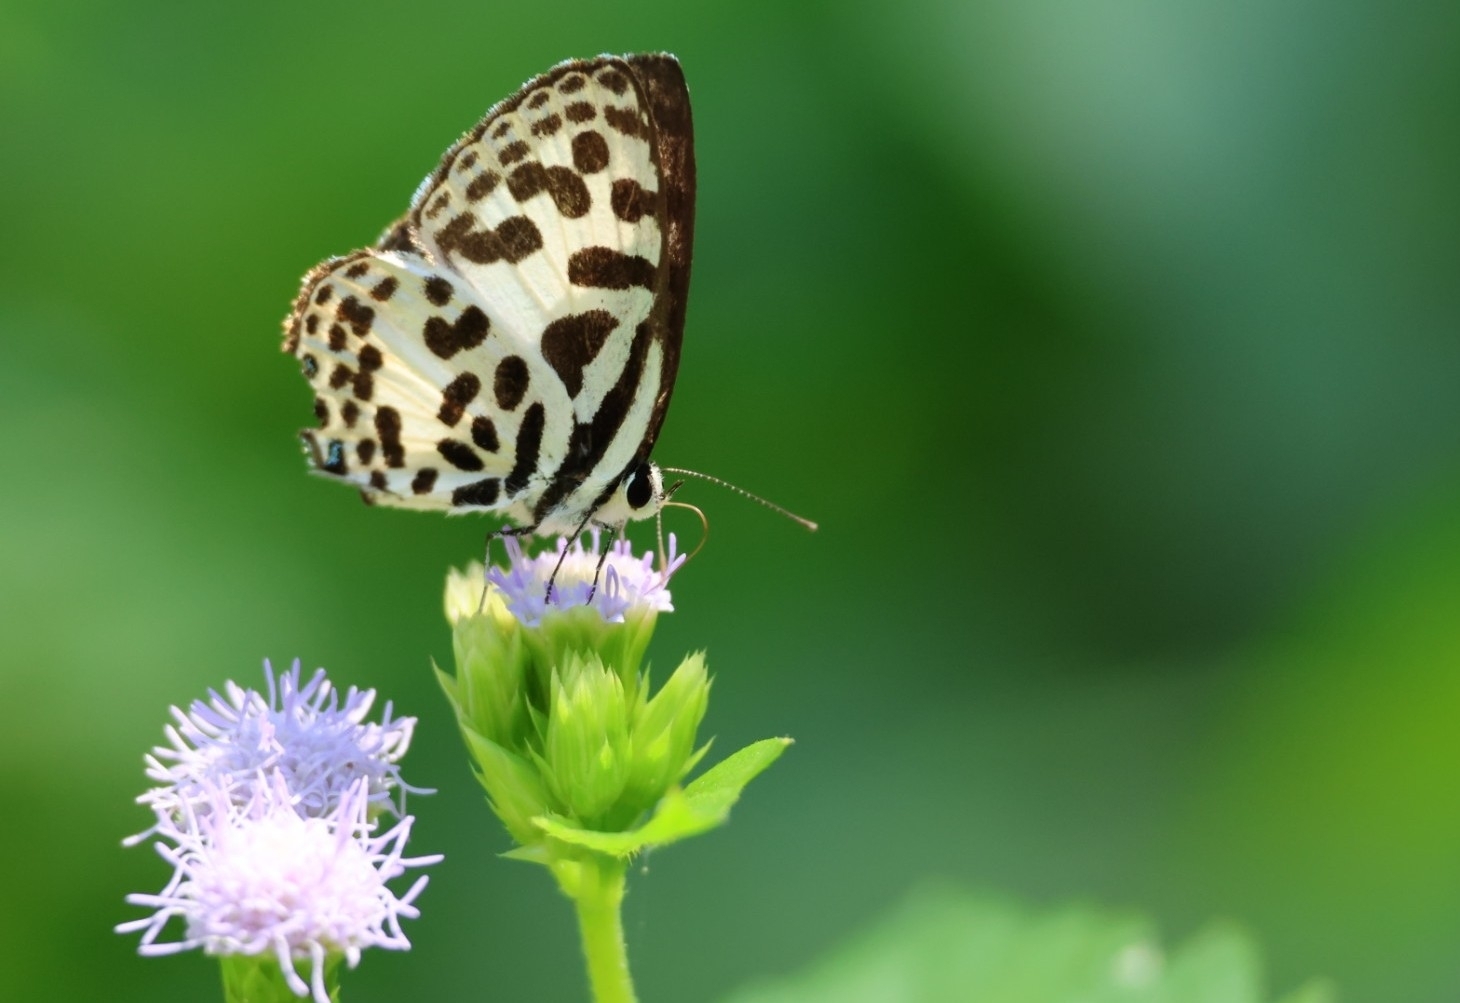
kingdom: Animalia
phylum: Arthropoda
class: Insecta
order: Lepidoptera
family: Lycaenidae
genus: Castalius
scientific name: Castalius rosimon
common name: Common pierrot
